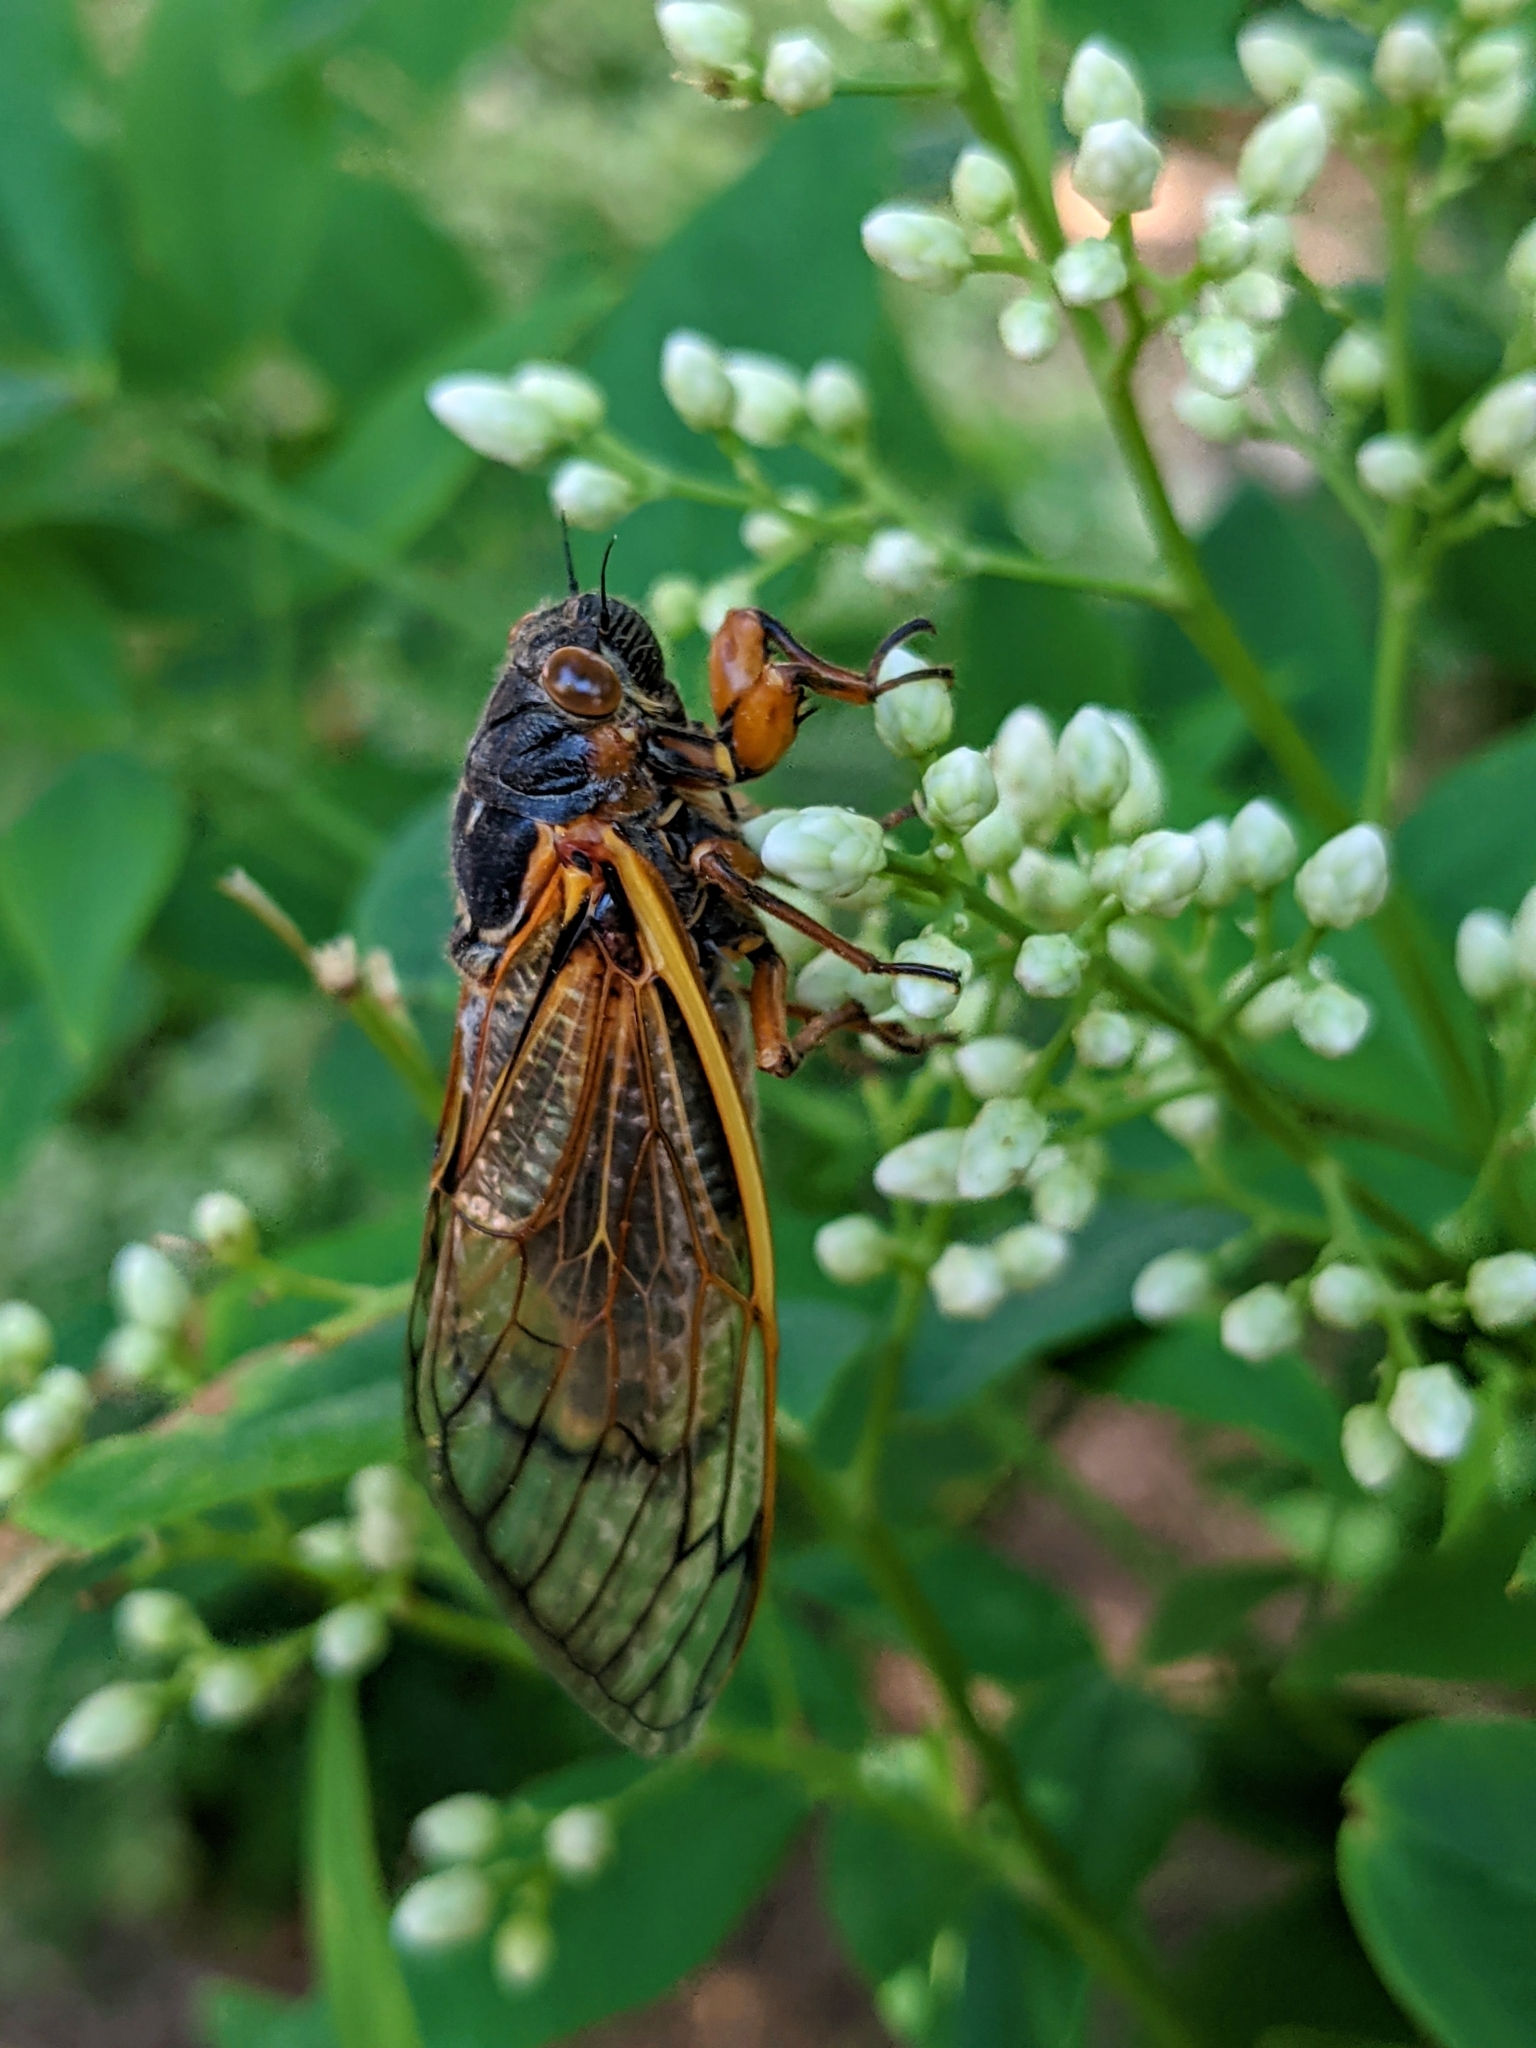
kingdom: Animalia
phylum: Arthropoda
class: Insecta
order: Hemiptera
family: Cicadidae
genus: Magicicada
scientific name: Magicicada septendecim
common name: Periodical cicada
